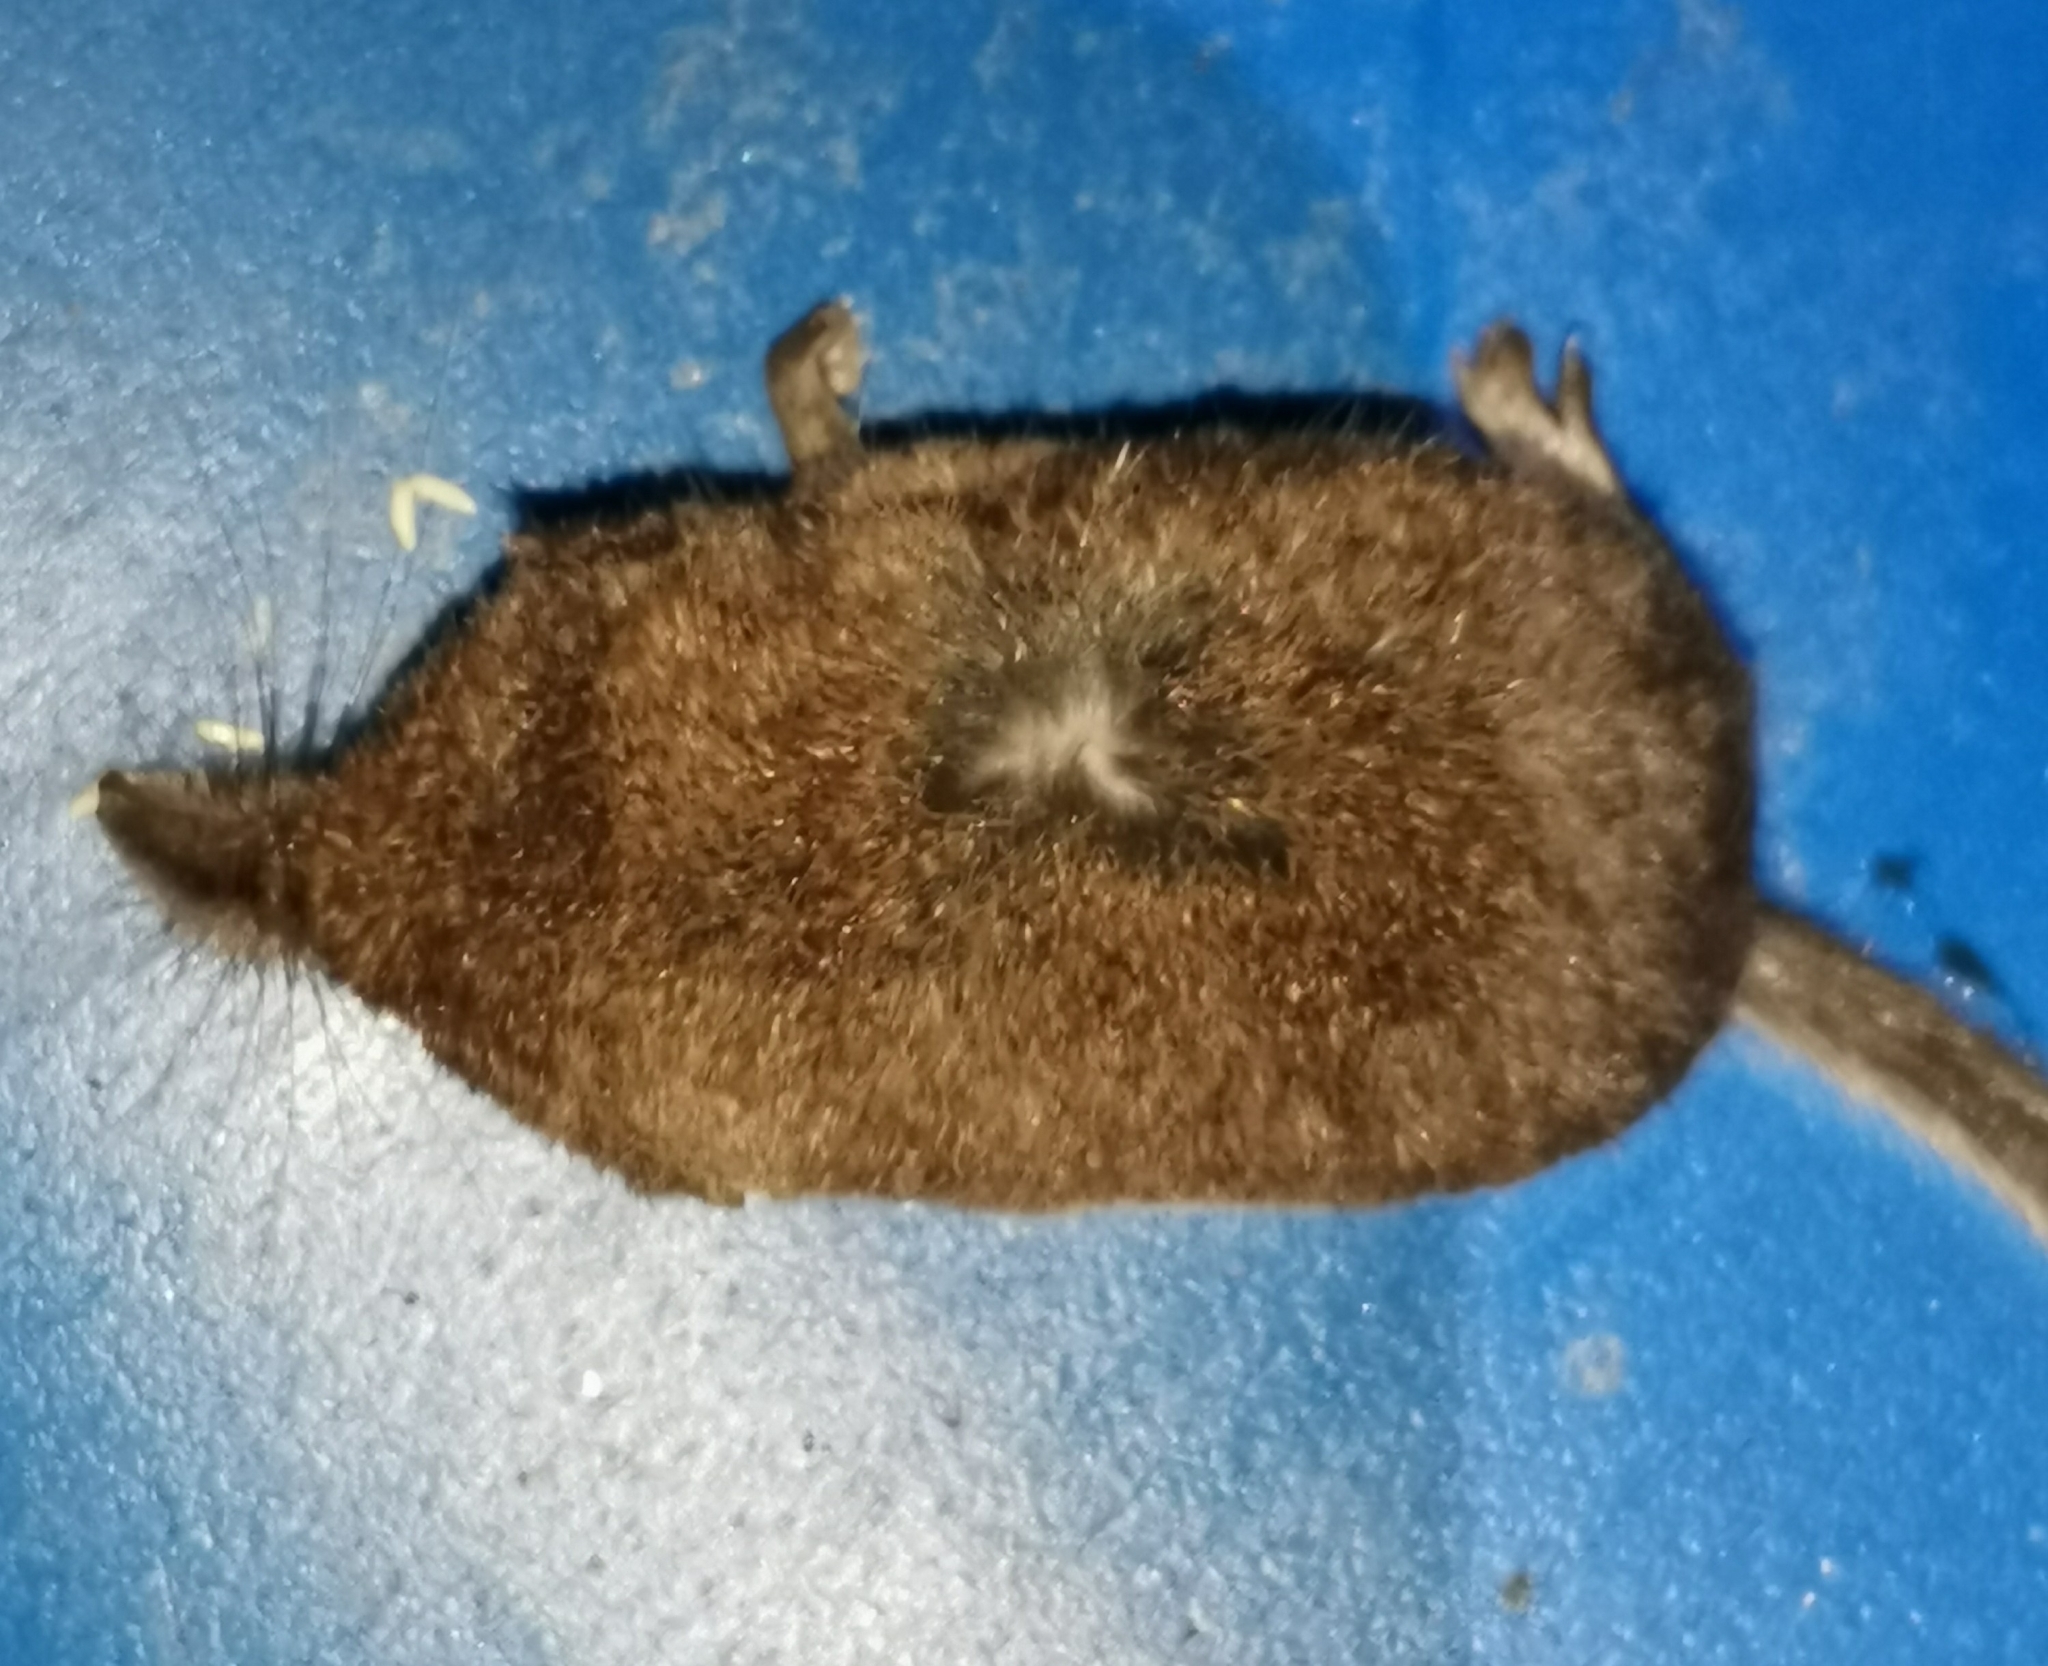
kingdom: Animalia
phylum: Chordata
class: Mammalia
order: Soricomorpha
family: Soricidae
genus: Sorex
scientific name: Sorex minutus
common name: Eurasian pygmy shrew
